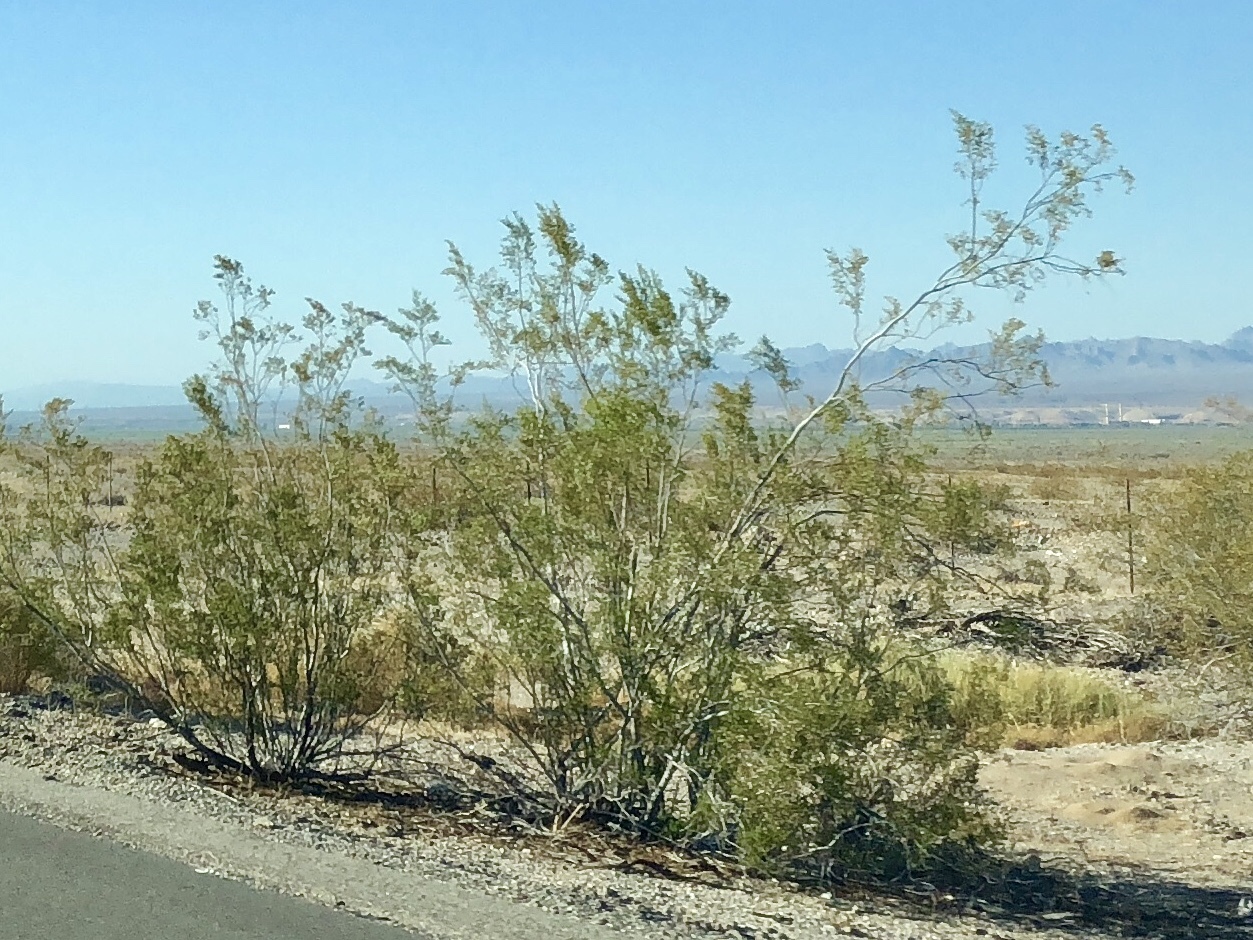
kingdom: Plantae
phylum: Tracheophyta
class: Magnoliopsida
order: Zygophyllales
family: Zygophyllaceae
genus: Larrea
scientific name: Larrea tridentata
